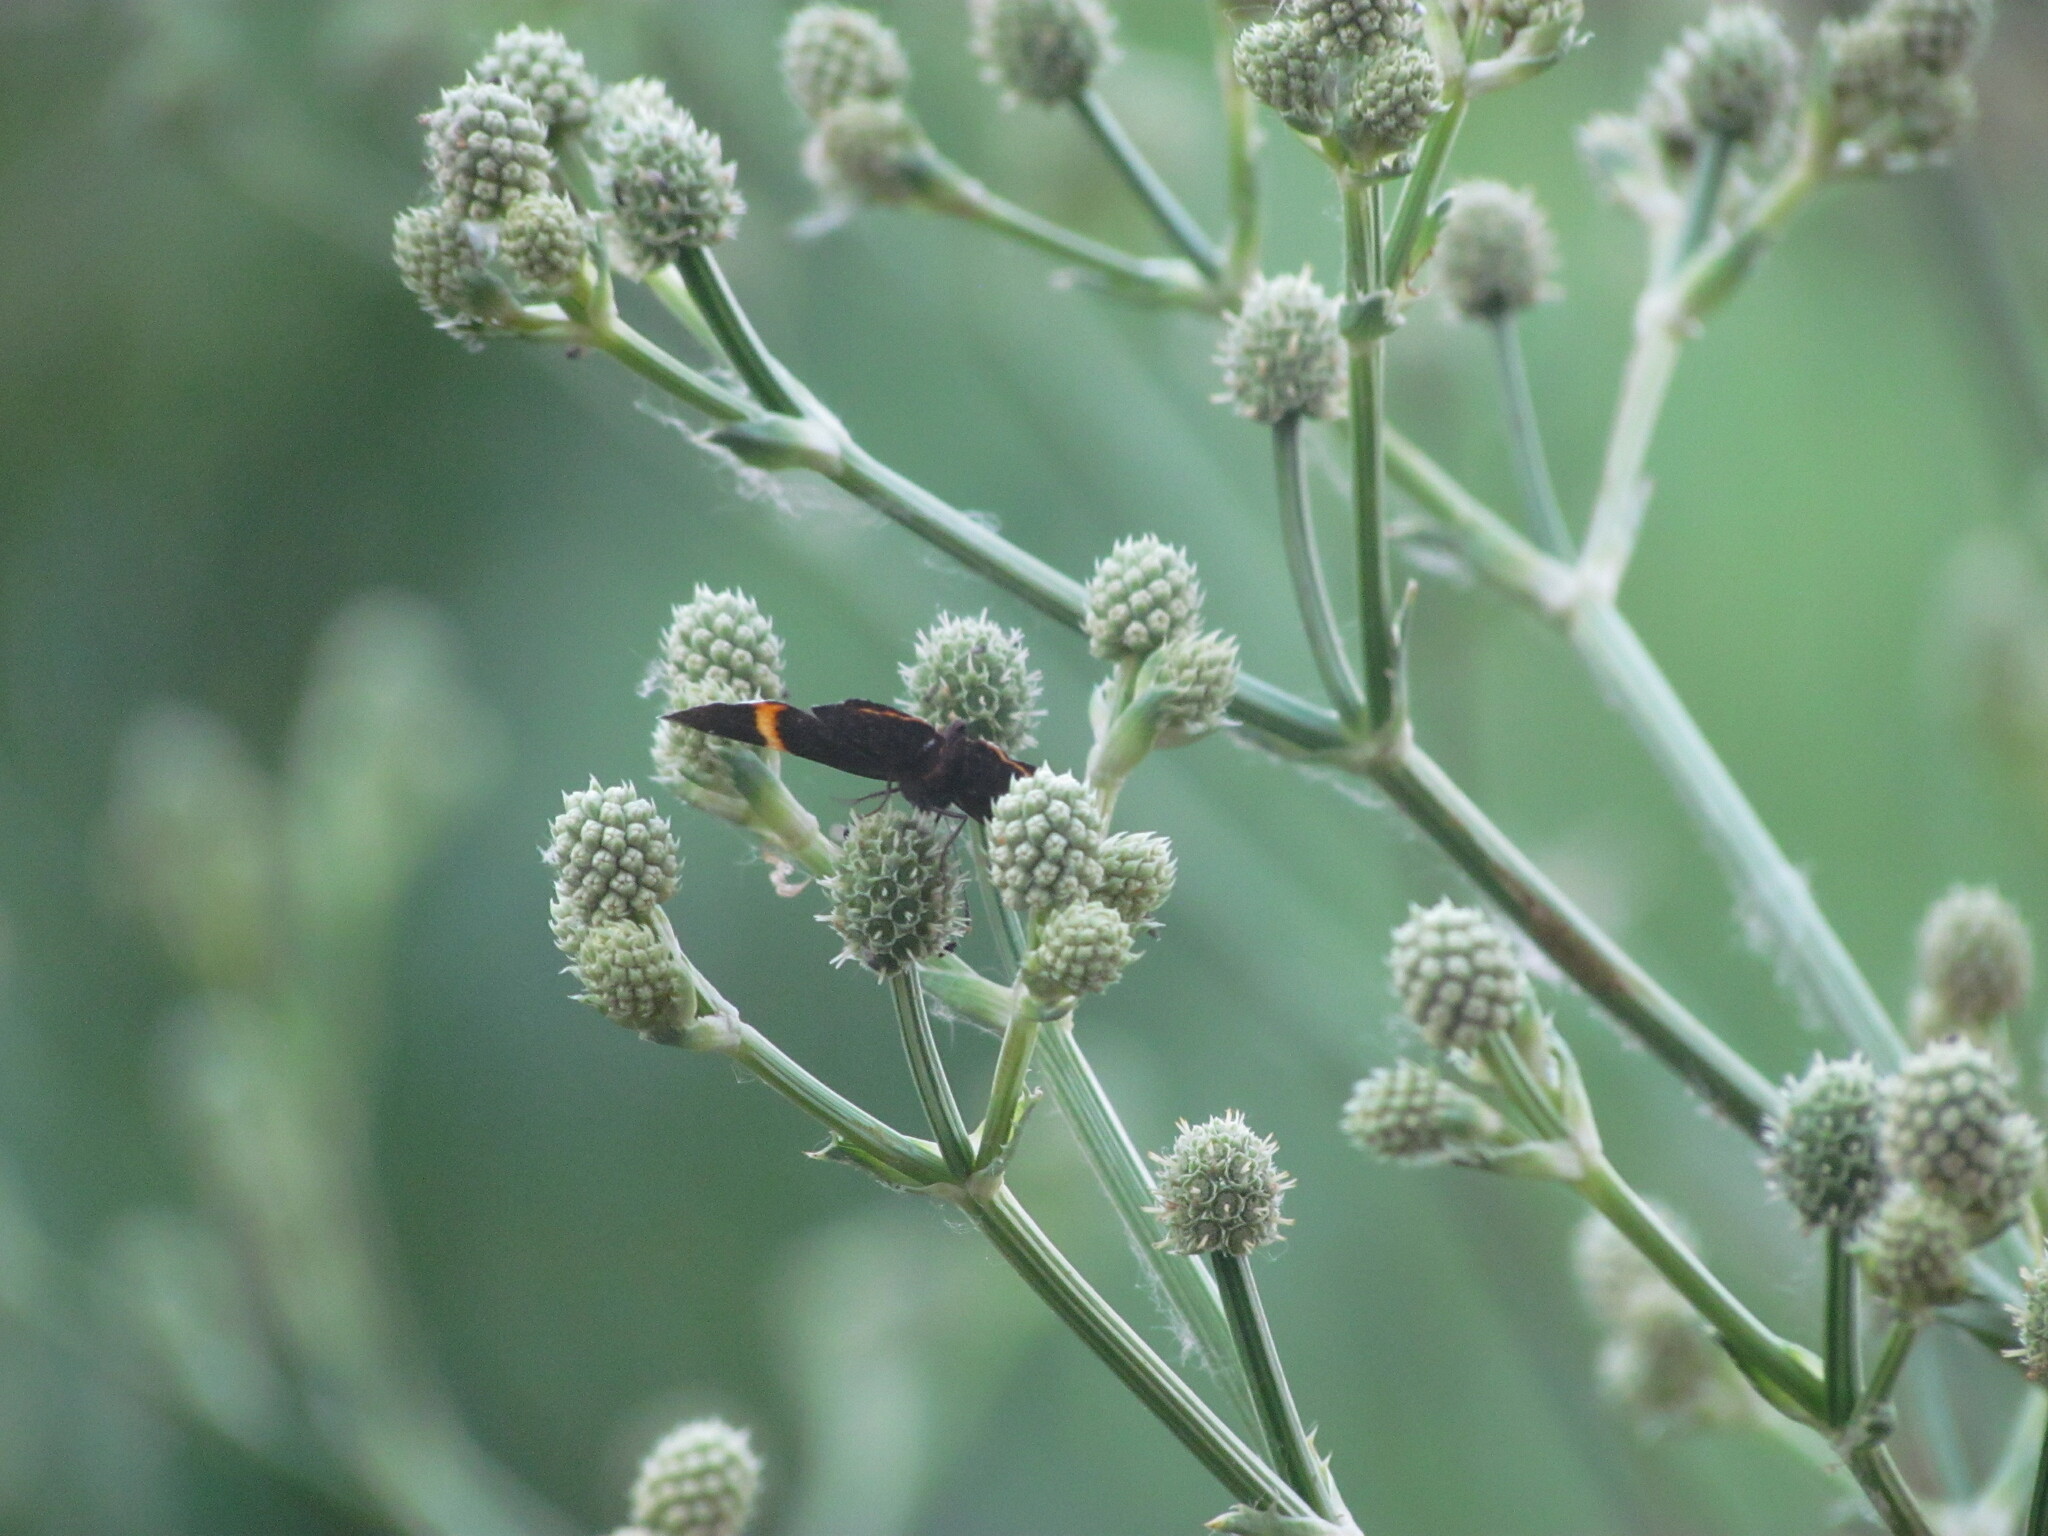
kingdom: Animalia
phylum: Arthropoda
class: Insecta
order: Lepidoptera
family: Riodinidae
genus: Riodina
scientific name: Riodina lysippoides
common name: Little dancer metalmark
